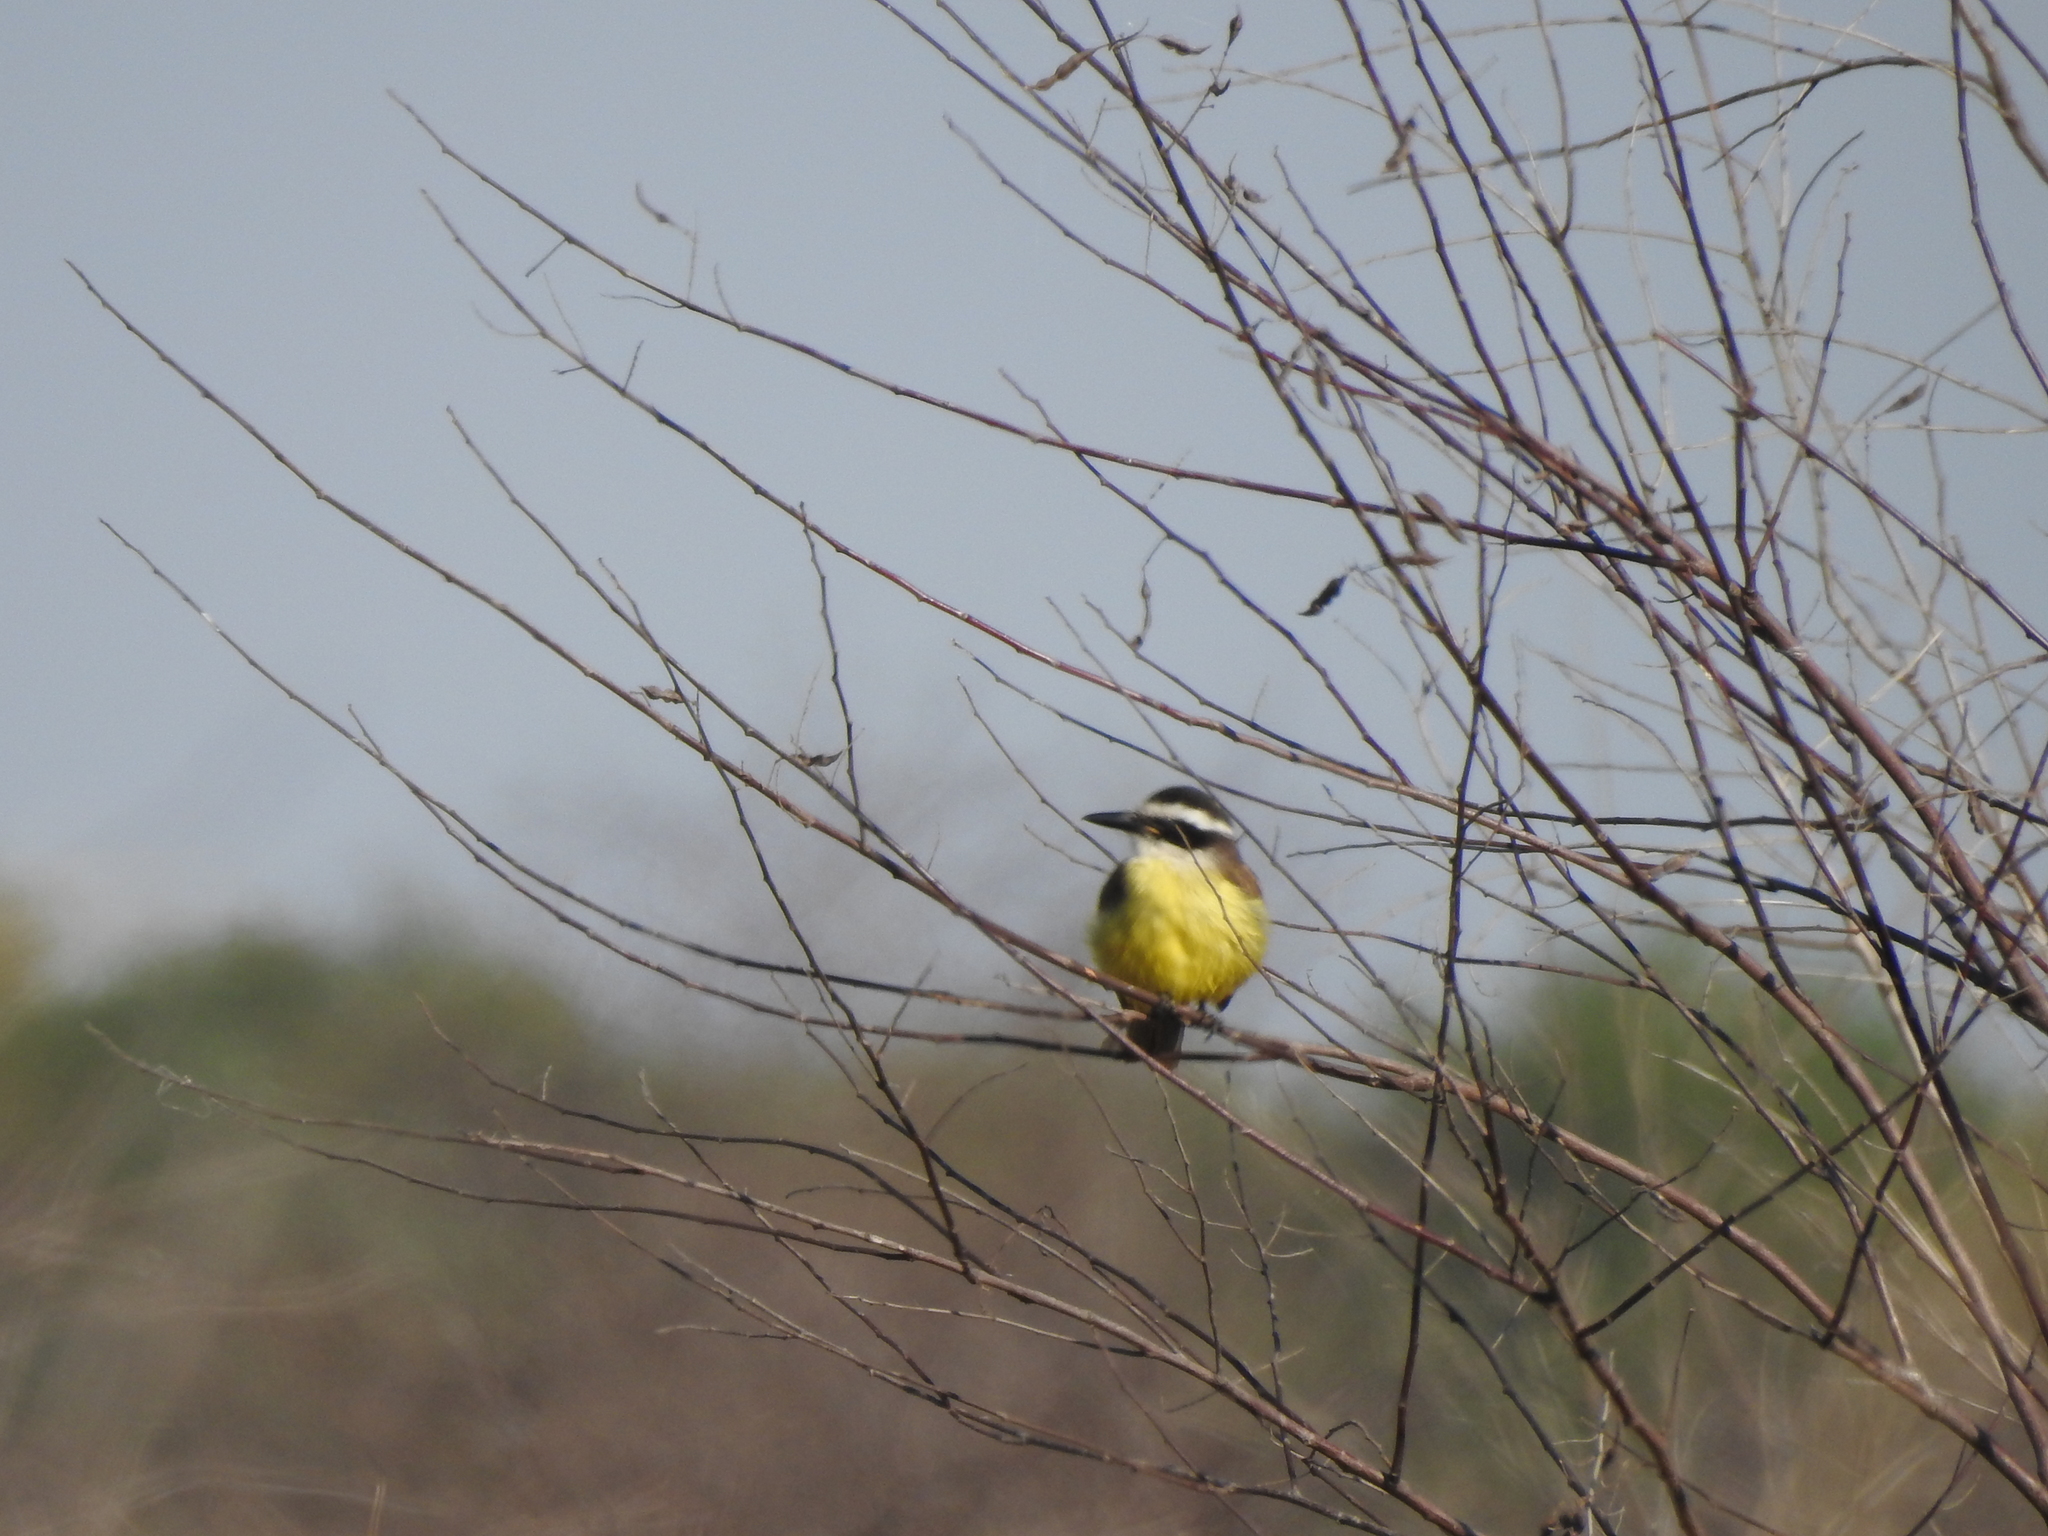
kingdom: Animalia
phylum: Chordata
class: Aves
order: Passeriformes
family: Tyrannidae
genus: Pitangus
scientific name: Pitangus sulphuratus
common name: Great kiskadee
